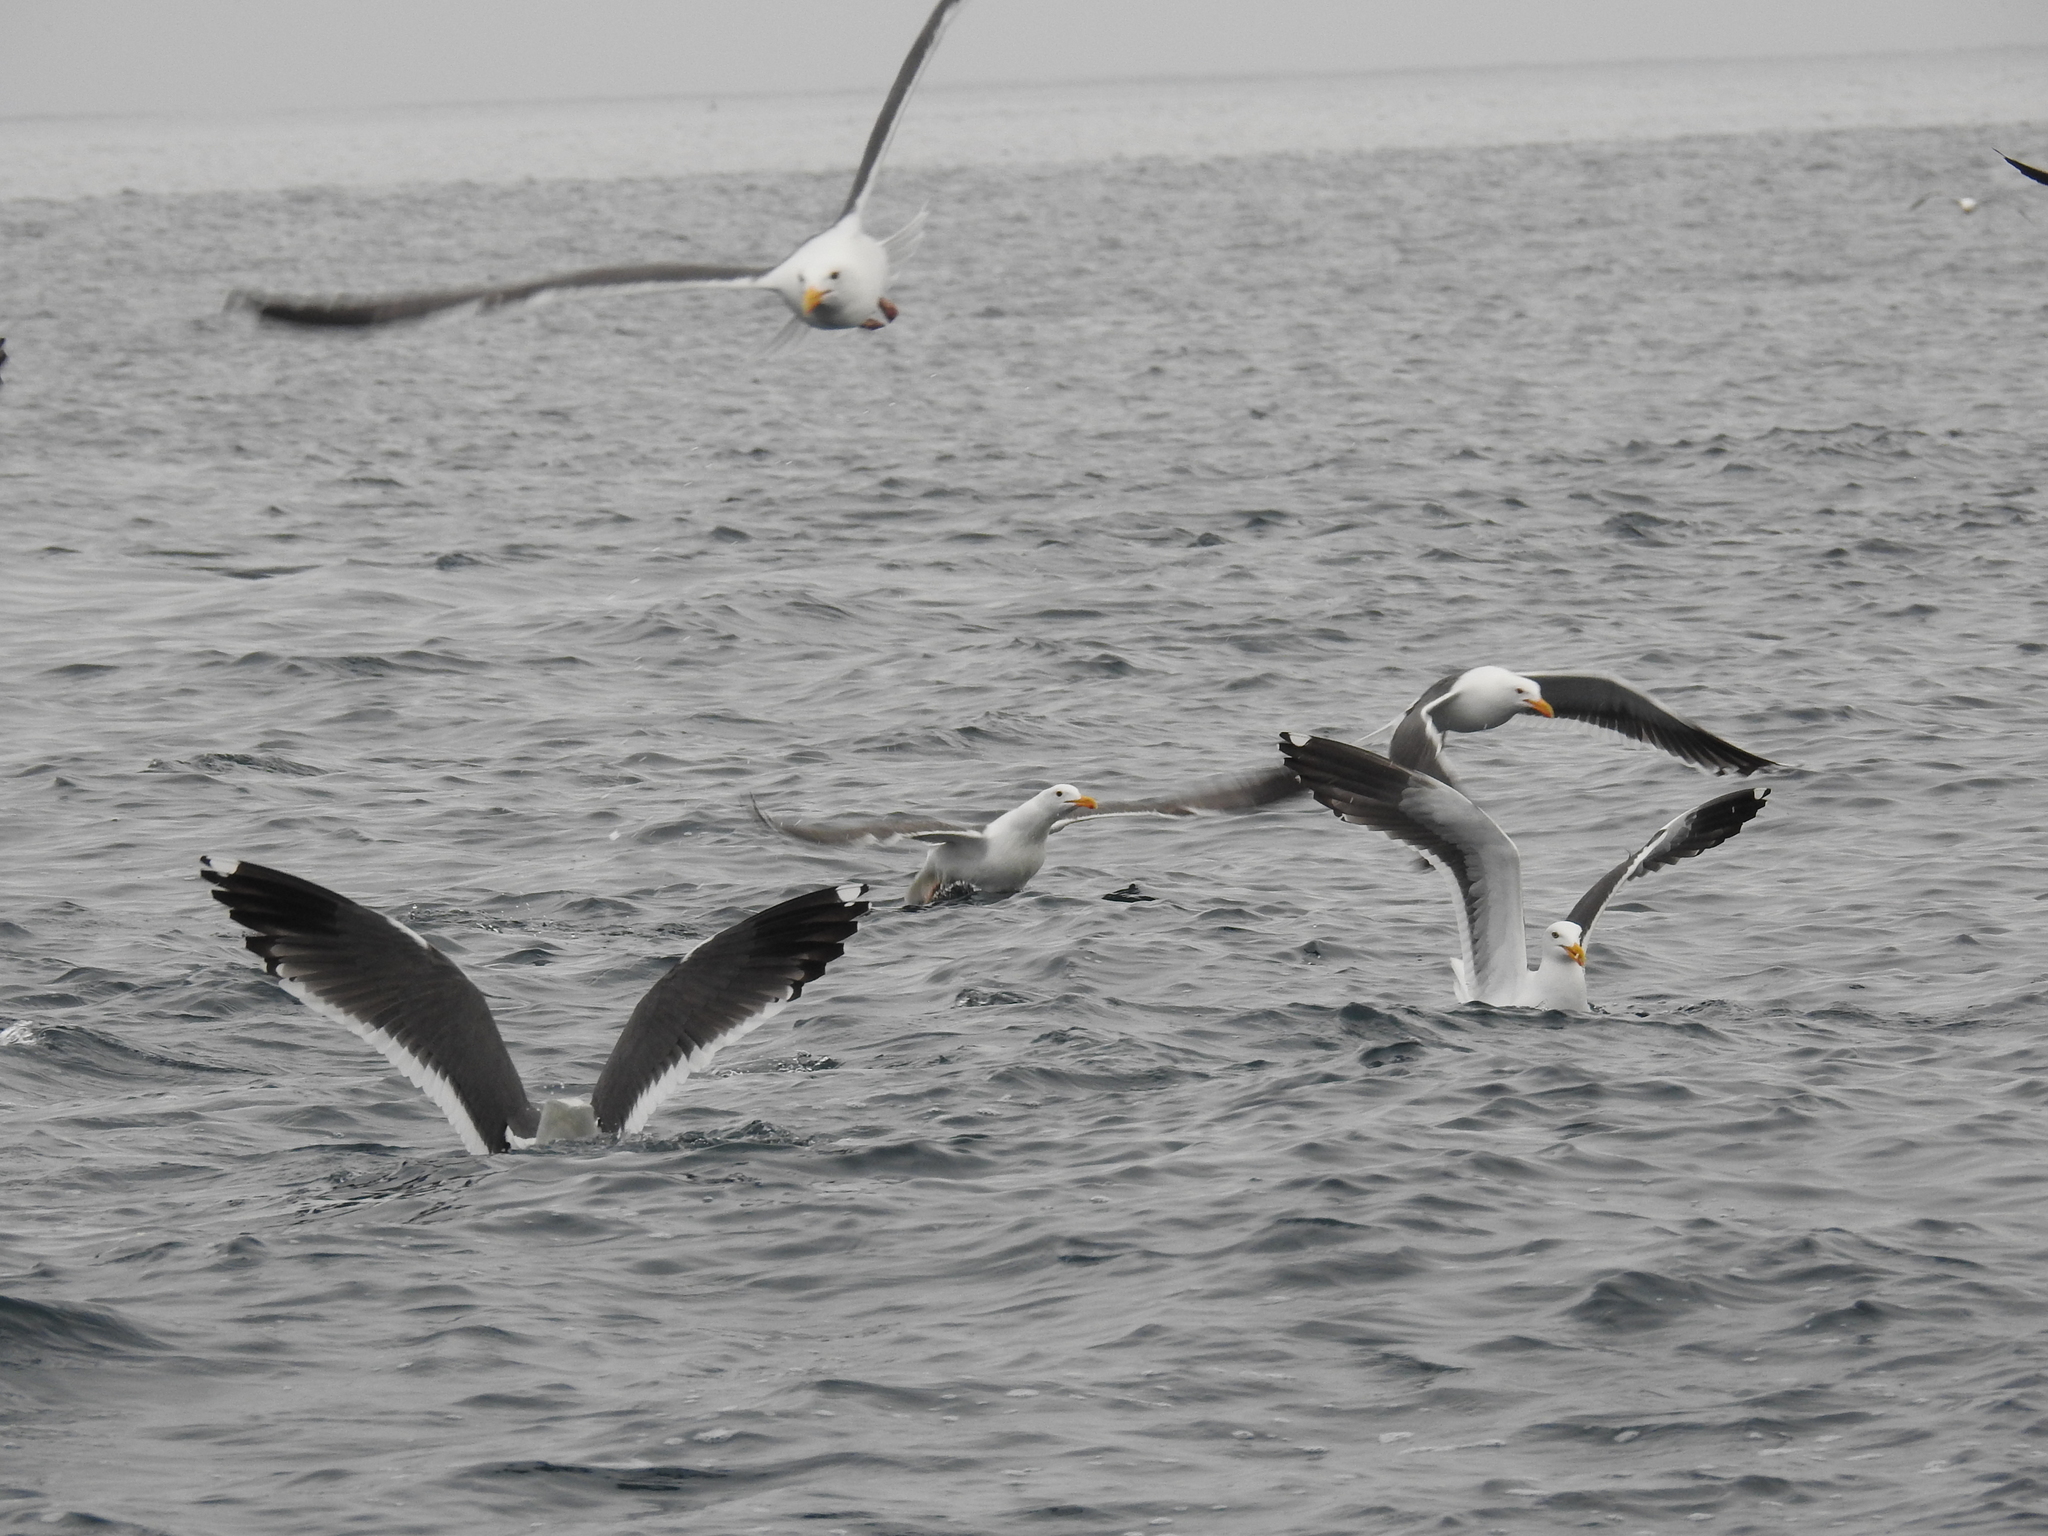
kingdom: Animalia
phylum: Chordata
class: Aves
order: Charadriiformes
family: Laridae
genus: Larus
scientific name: Larus occidentalis
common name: Western gull
